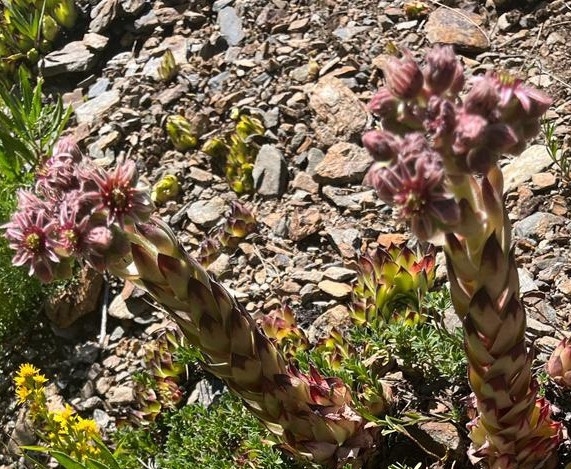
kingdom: Plantae
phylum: Tracheophyta
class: Magnoliopsida
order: Saxifragales
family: Crassulaceae
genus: Sempervivum
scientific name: Sempervivum tectorum
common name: House-leek
